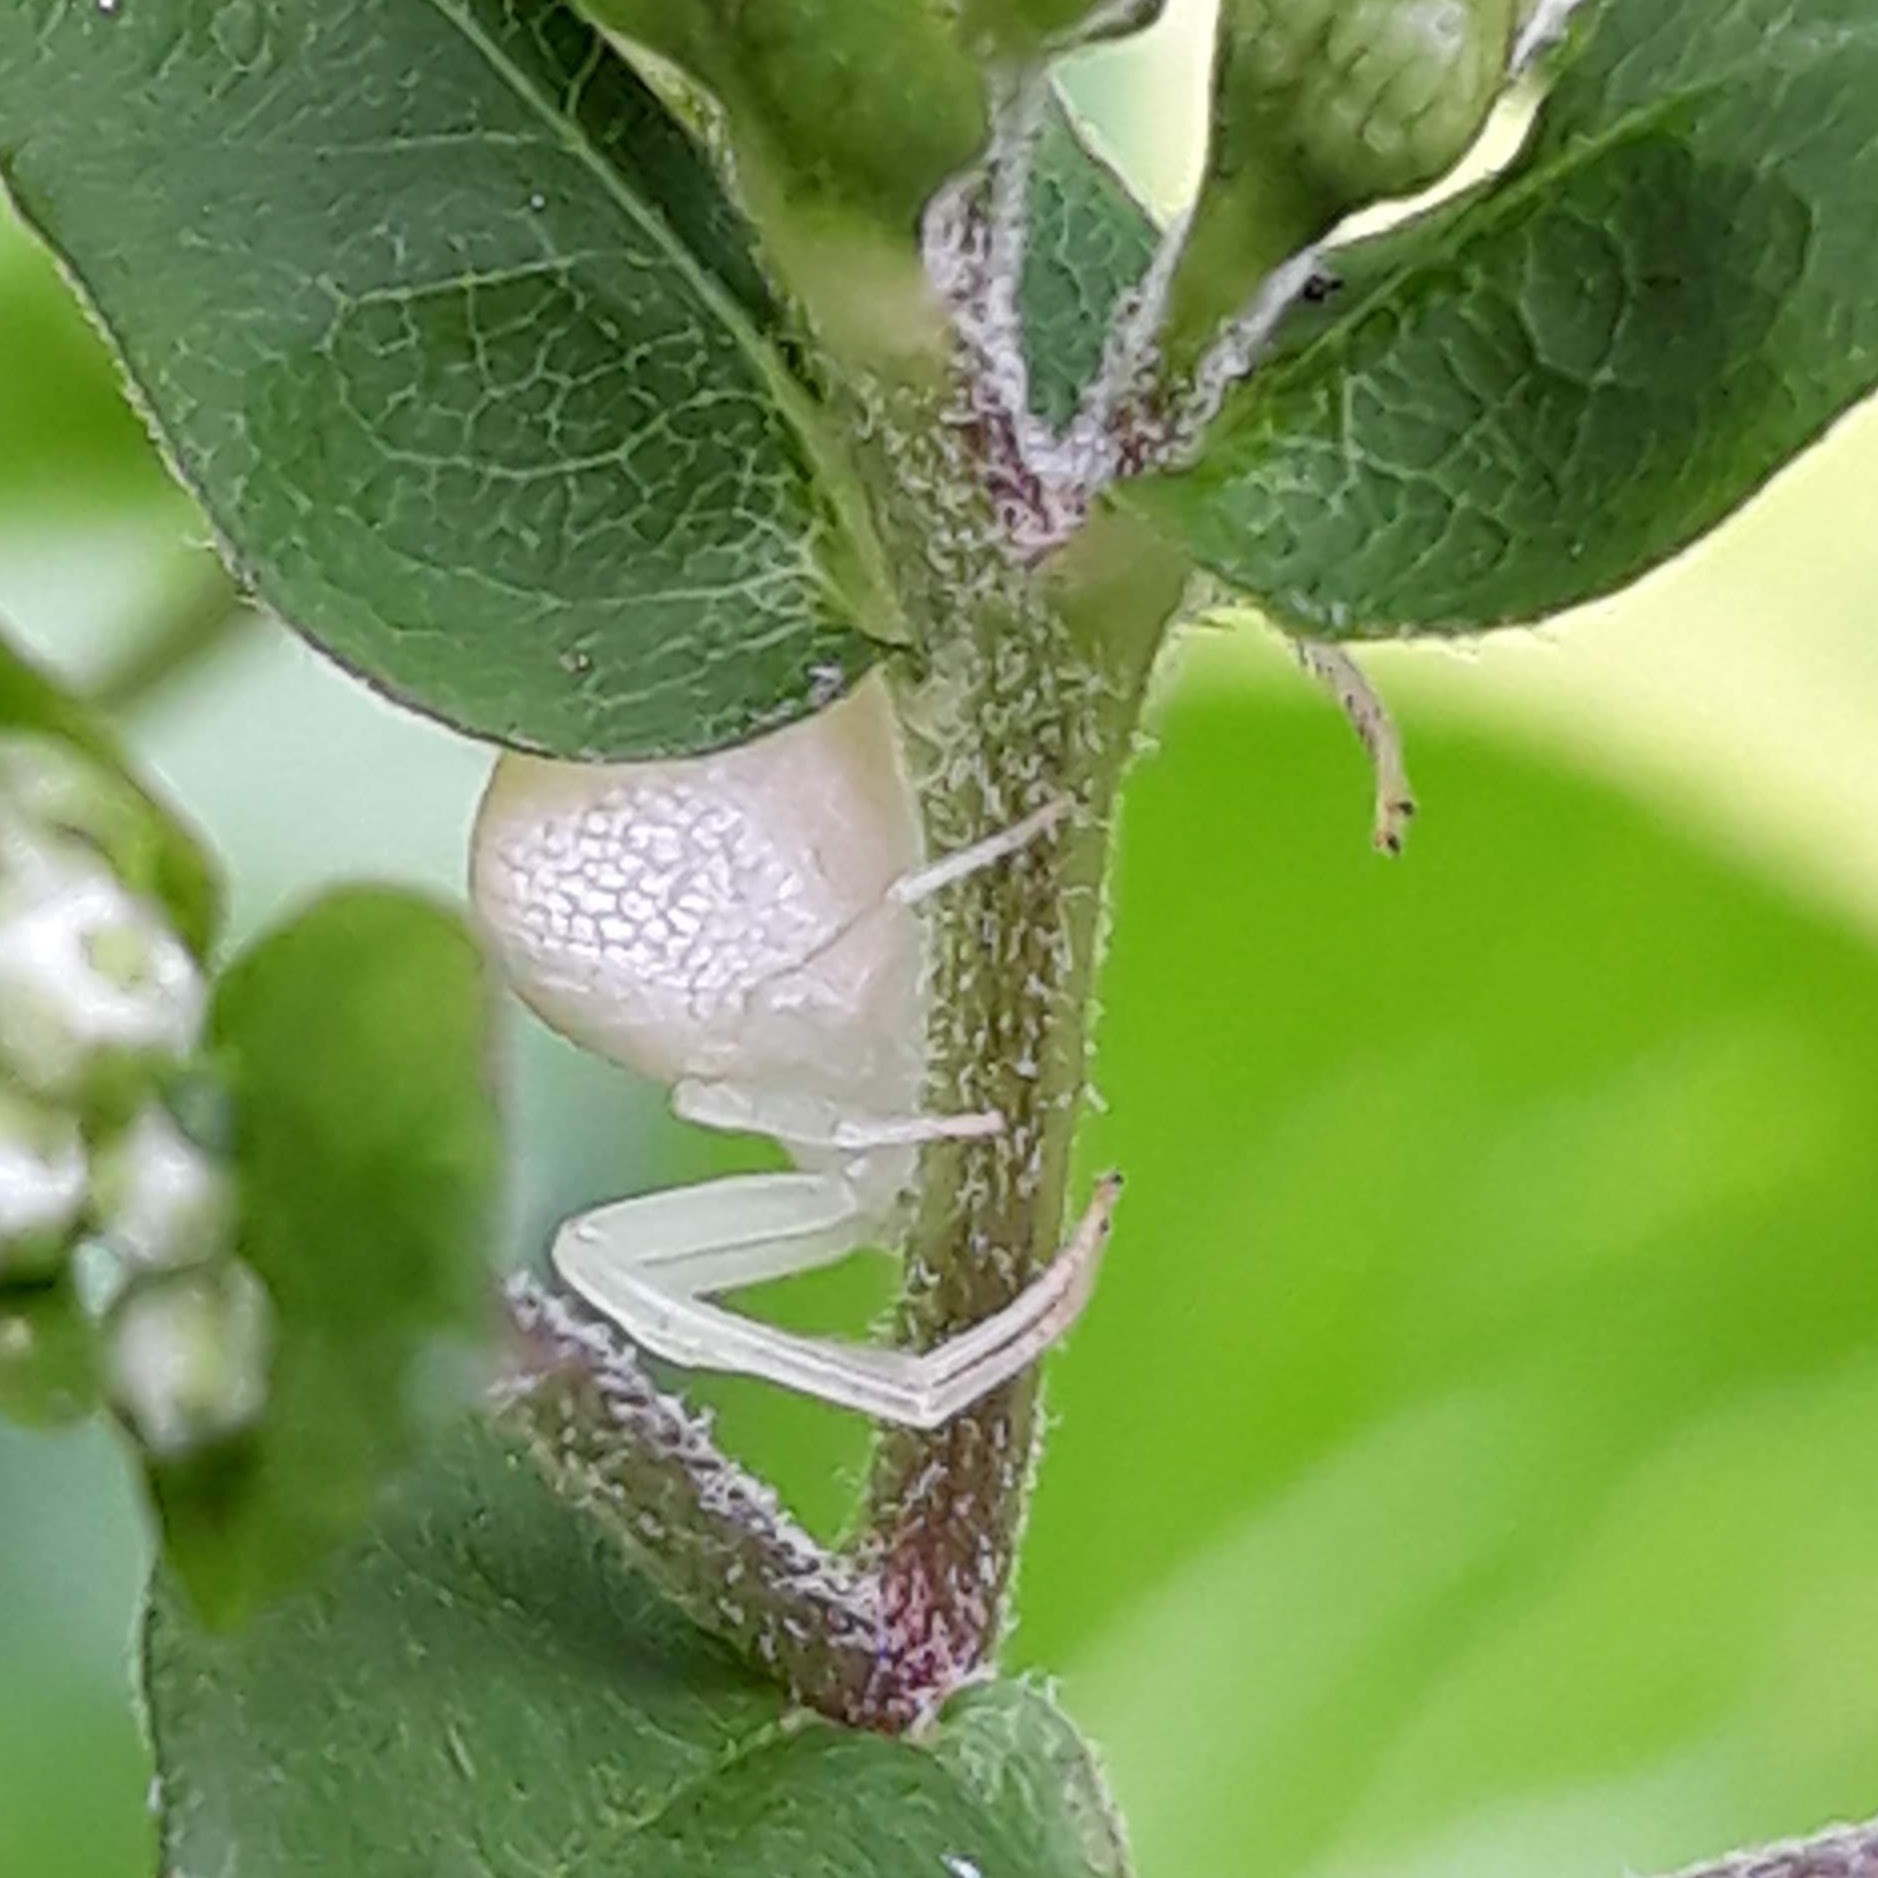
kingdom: Animalia
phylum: Arthropoda
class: Arachnida
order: Araneae
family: Thomisidae
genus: Misumessus
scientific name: Misumessus oblongus
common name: American green crab spider
